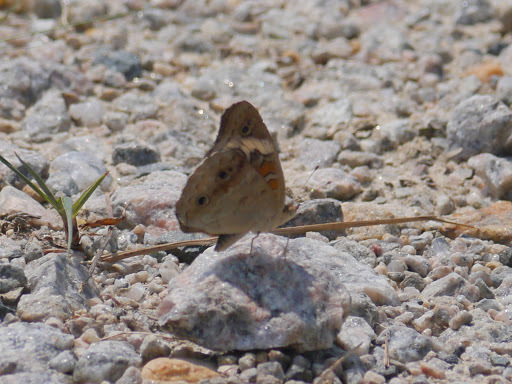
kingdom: Animalia
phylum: Arthropoda
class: Insecta
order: Lepidoptera
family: Nymphalidae
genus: Junonia
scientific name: Junonia coenia
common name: Common buckeye
